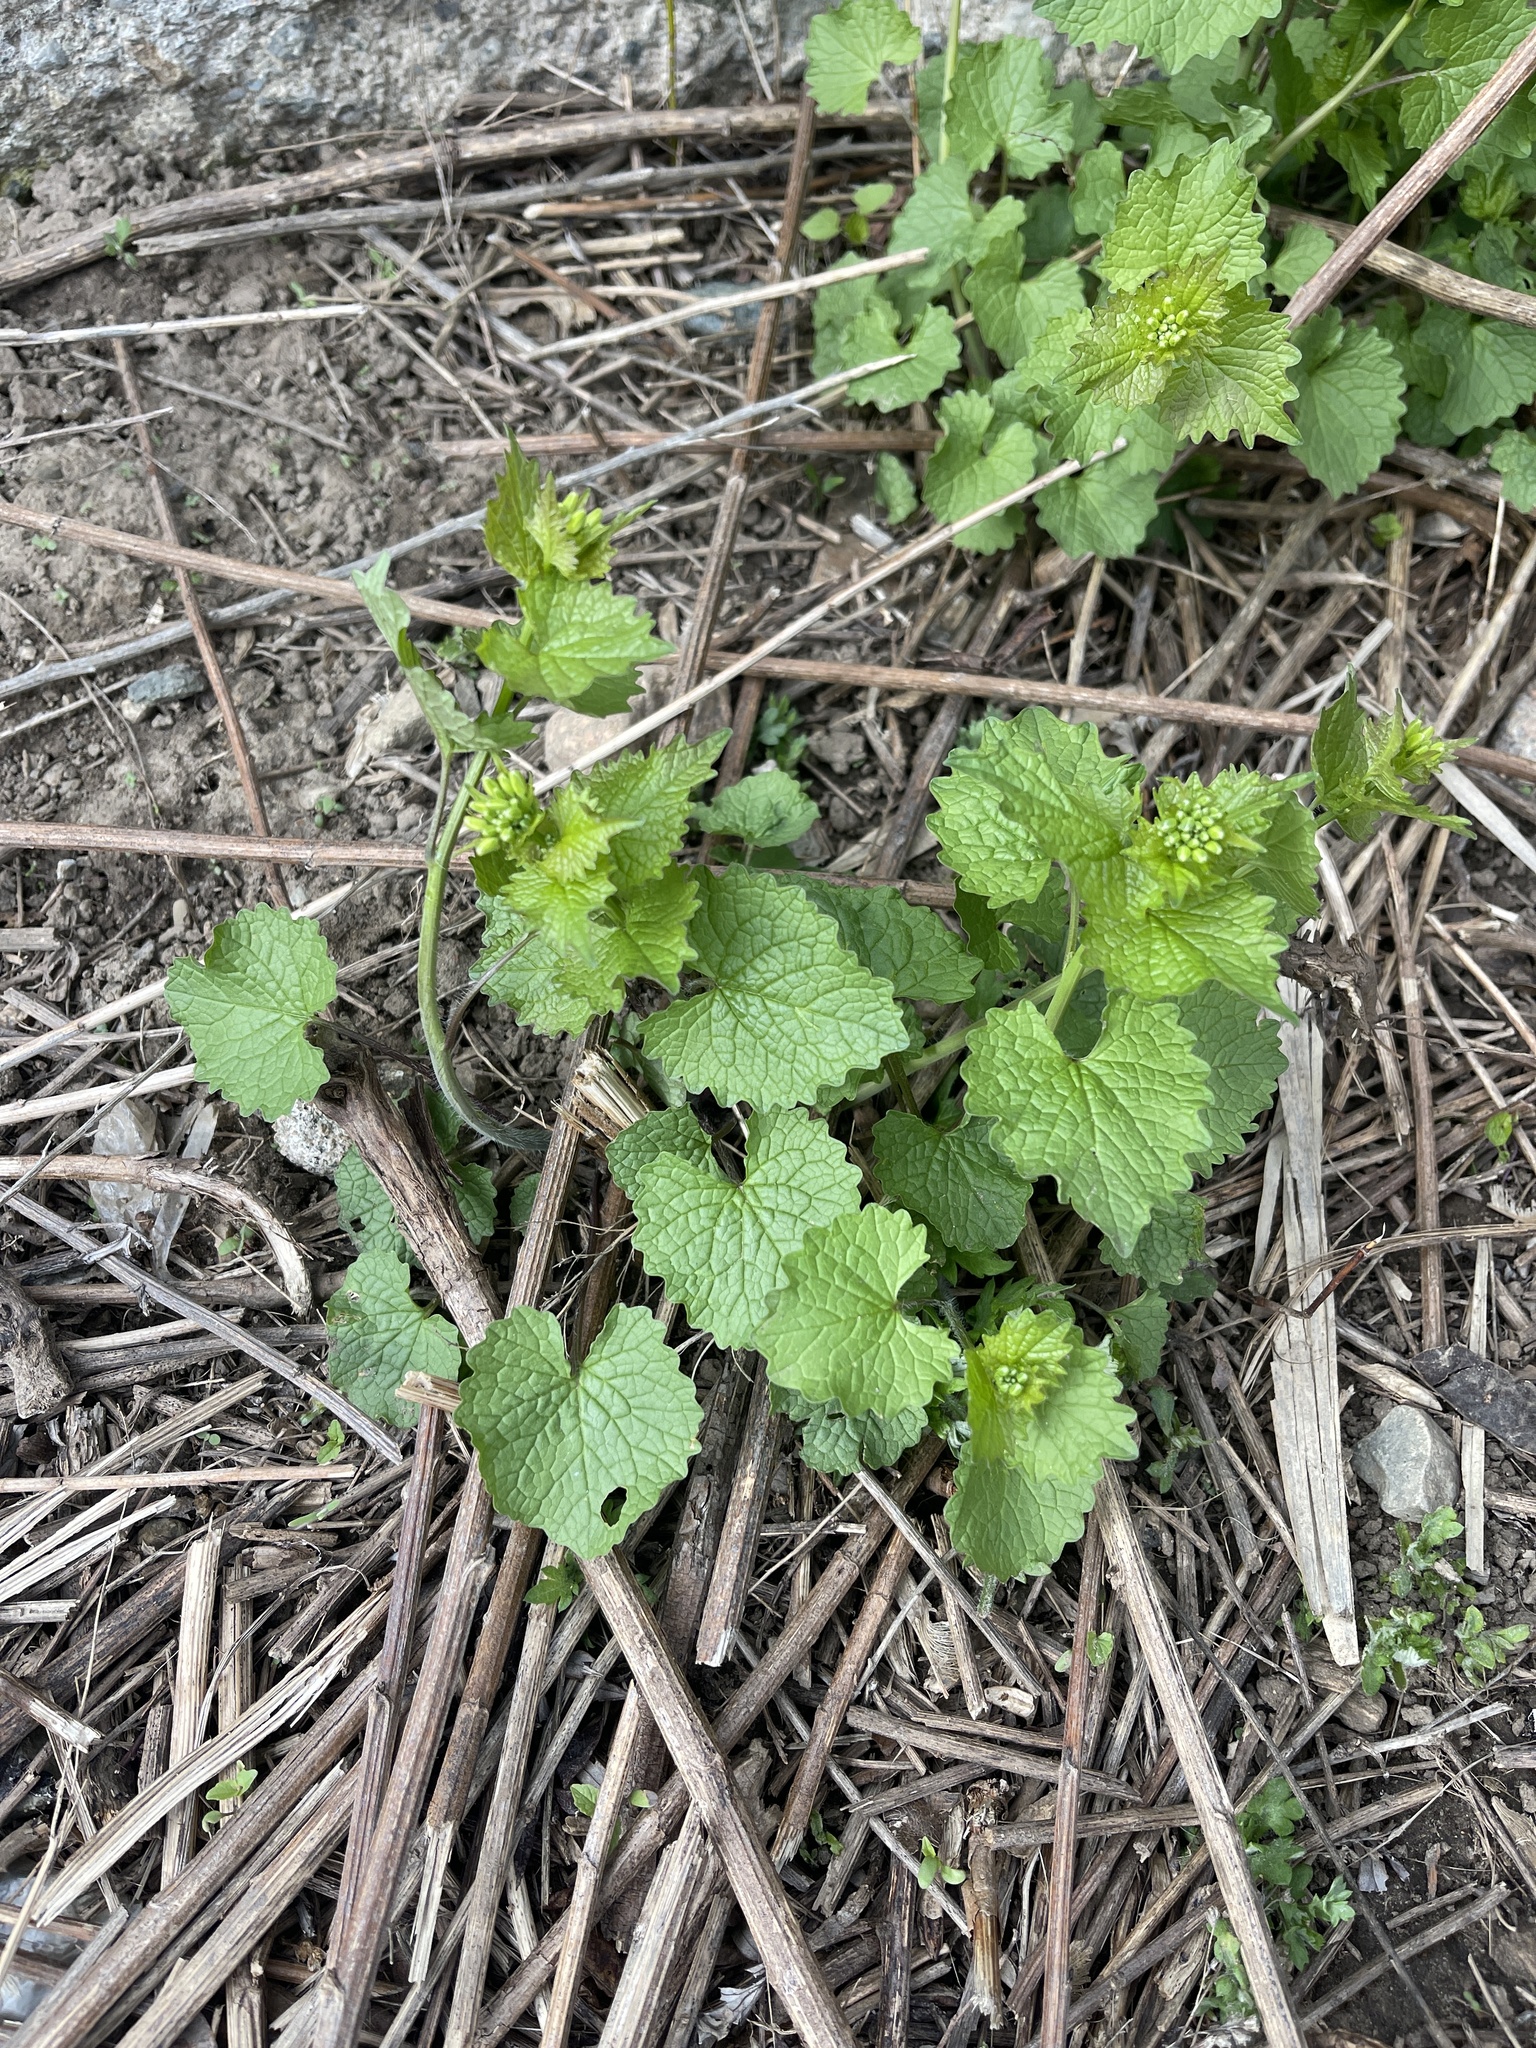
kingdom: Plantae
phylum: Tracheophyta
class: Magnoliopsida
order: Brassicales
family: Brassicaceae
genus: Alliaria
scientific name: Alliaria petiolata
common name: Garlic mustard
